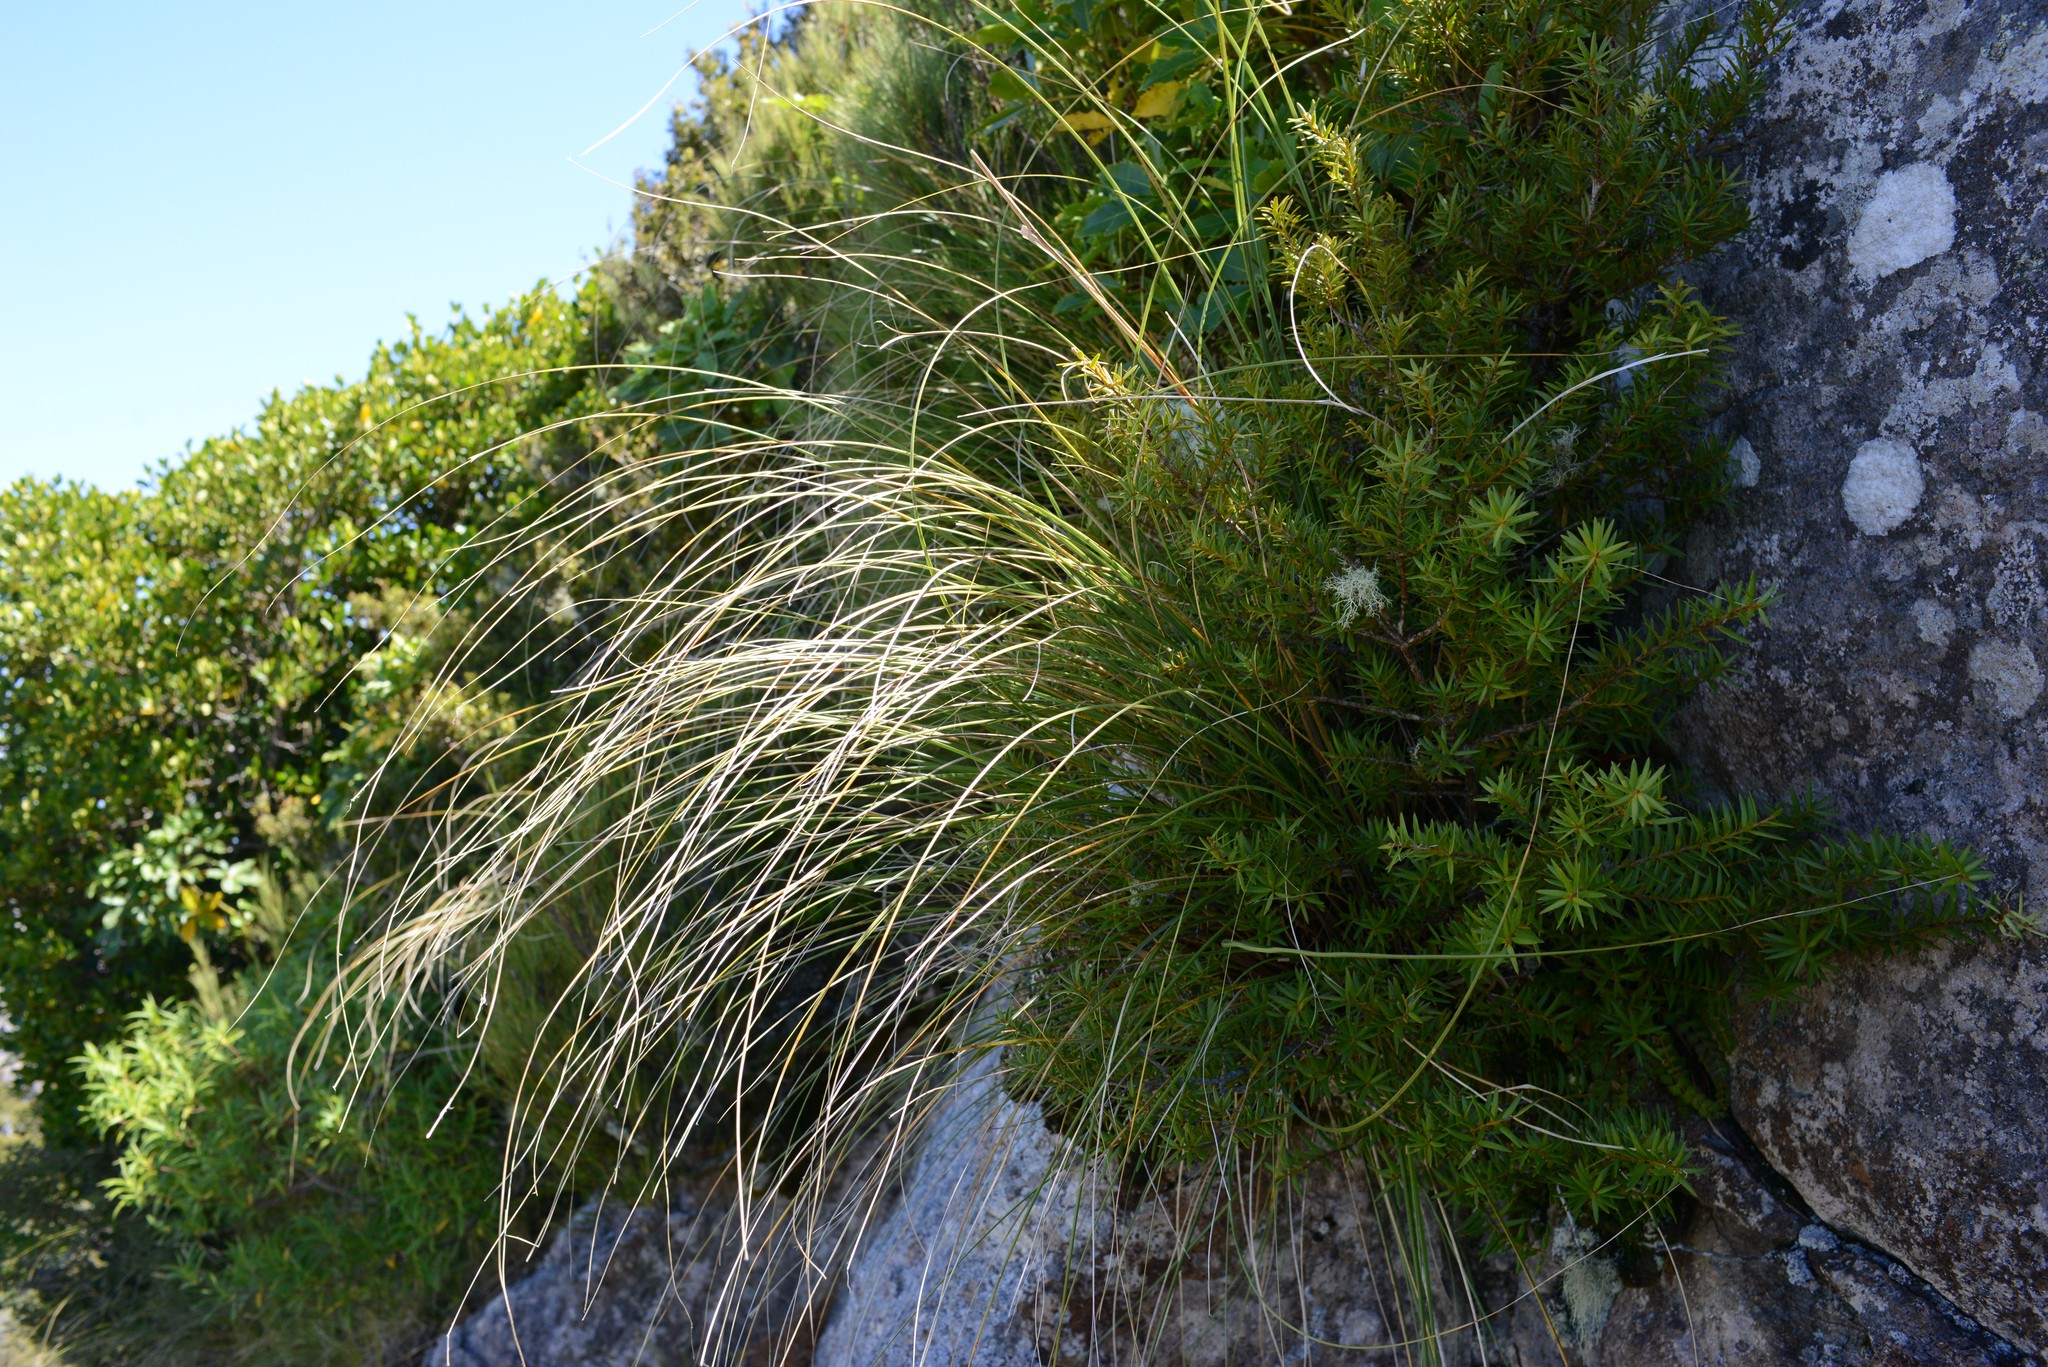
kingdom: Plantae
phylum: Tracheophyta
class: Pinopsida
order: Pinales
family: Podocarpaceae
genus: Podocarpus
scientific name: Podocarpus laetus
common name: Hall's totara
